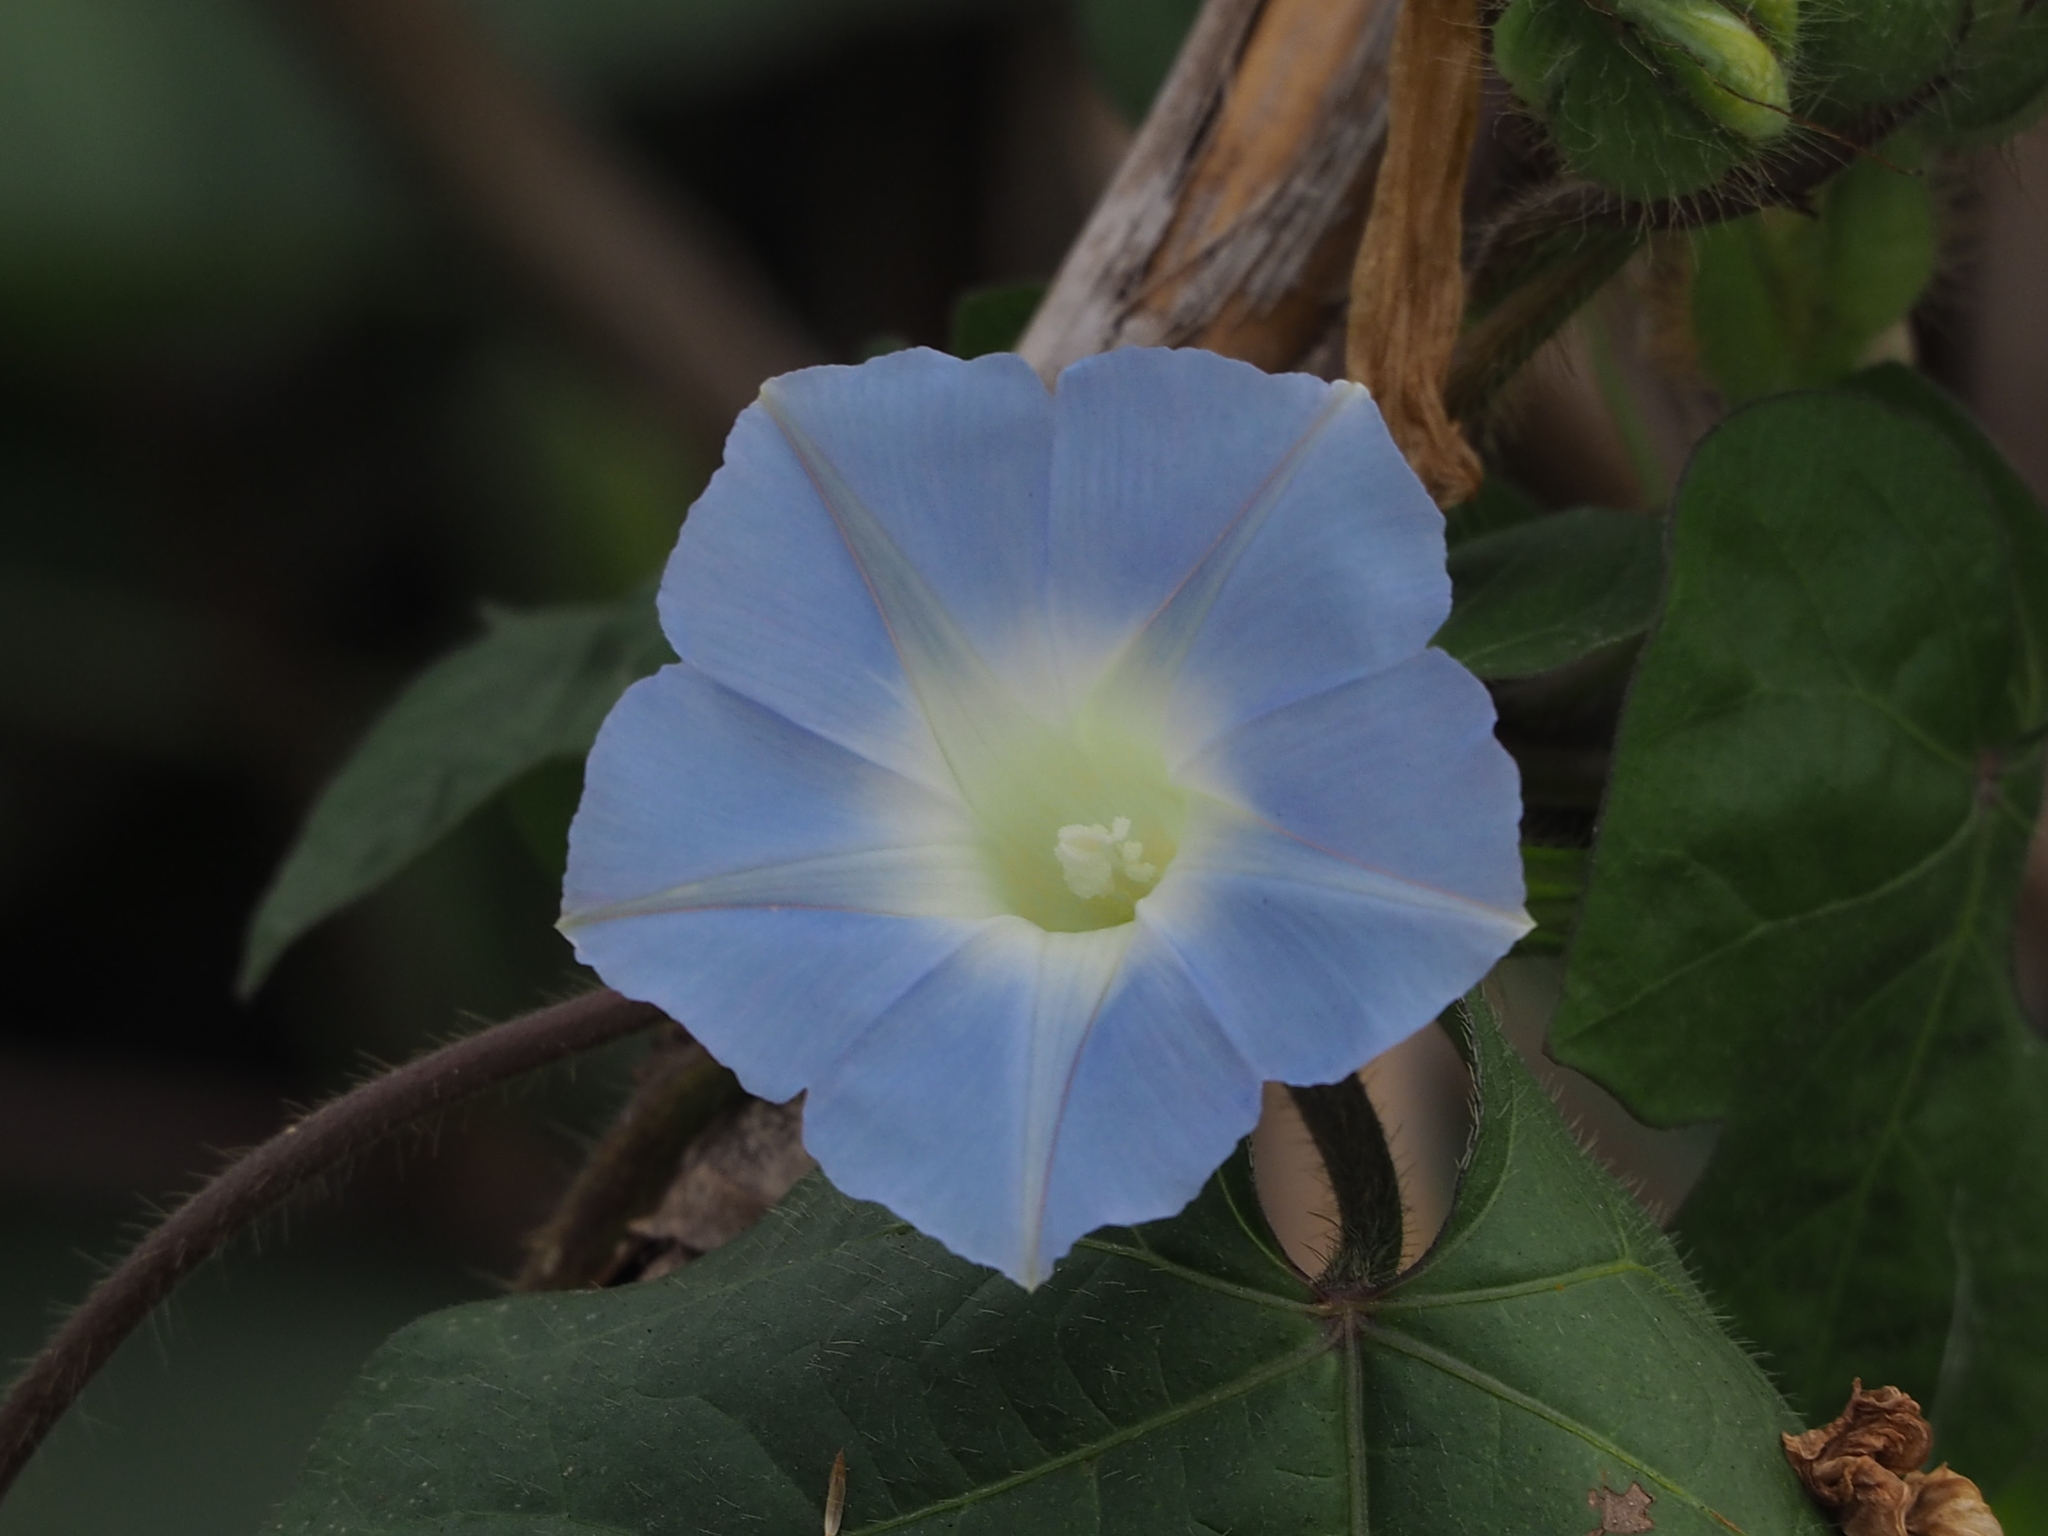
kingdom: Plantae
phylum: Tracheophyta
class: Magnoliopsida
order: Solanales
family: Convolvulaceae
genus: Ipomoea
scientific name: Ipomoea nil
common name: Japanese morning-glory
